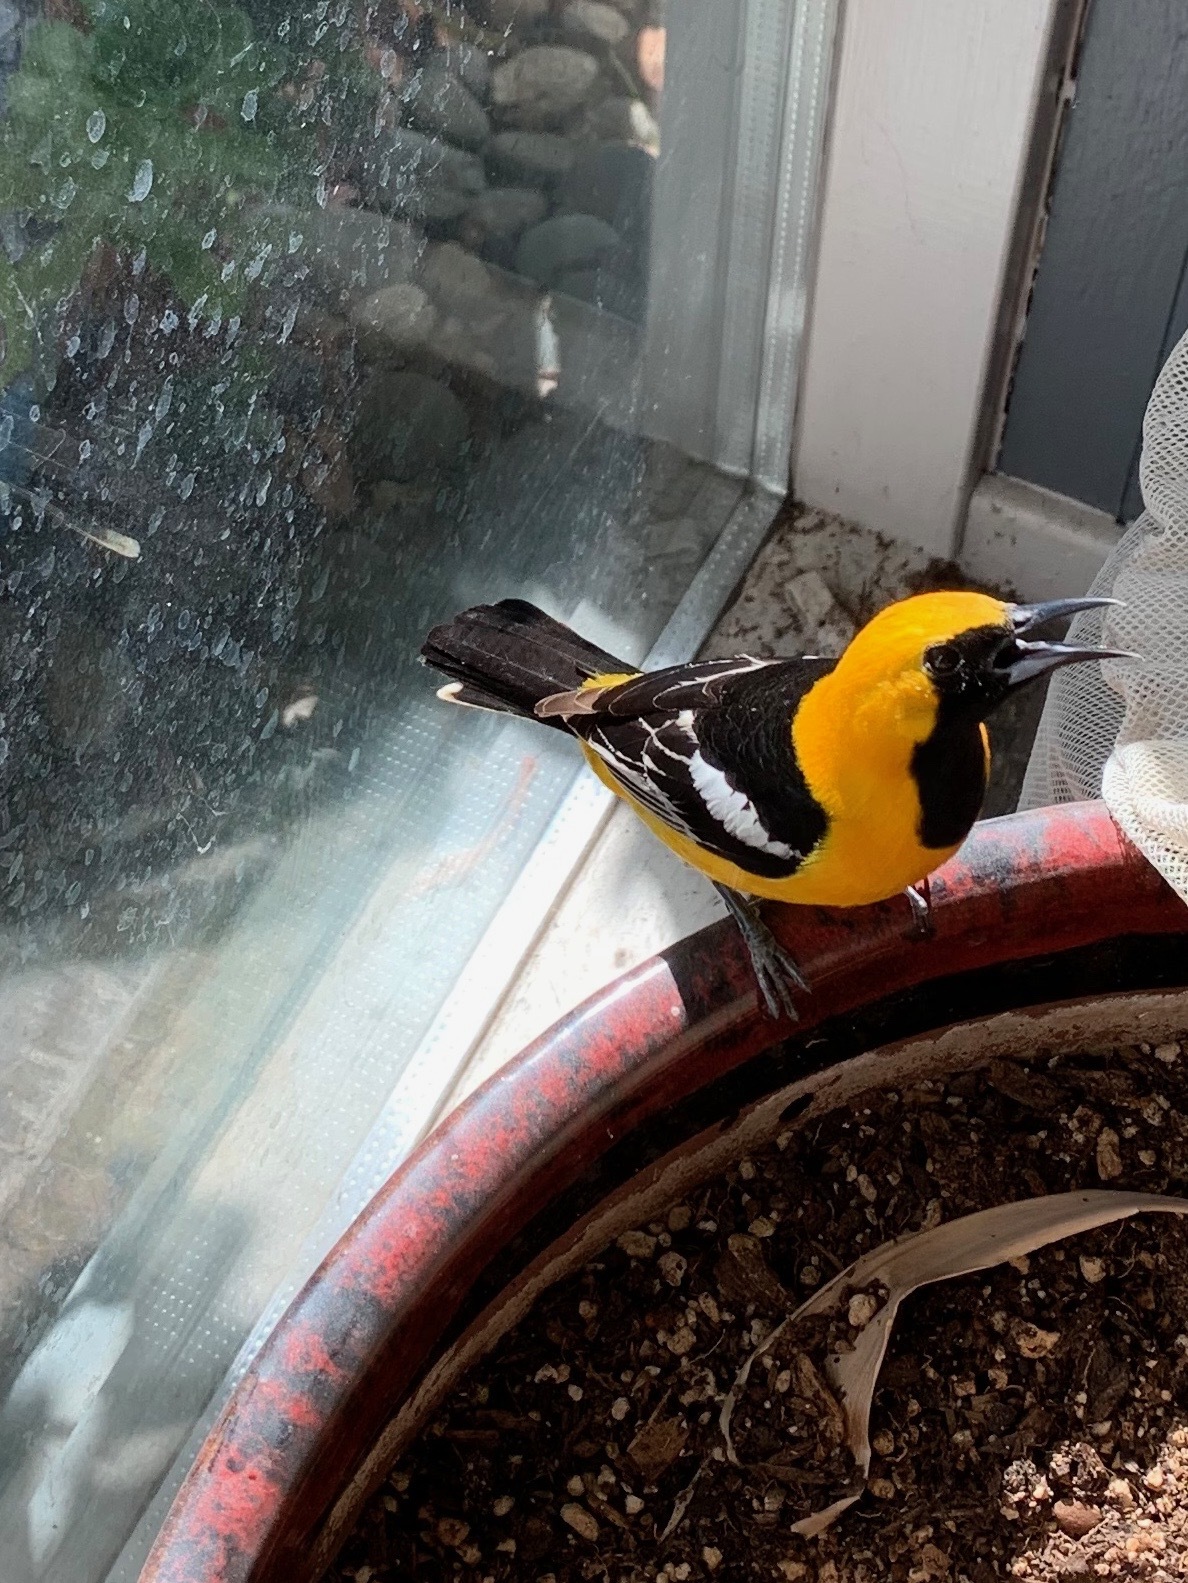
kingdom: Animalia
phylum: Chordata
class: Aves
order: Passeriformes
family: Icteridae
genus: Icterus
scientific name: Icterus cucullatus
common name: Hooded oriole
